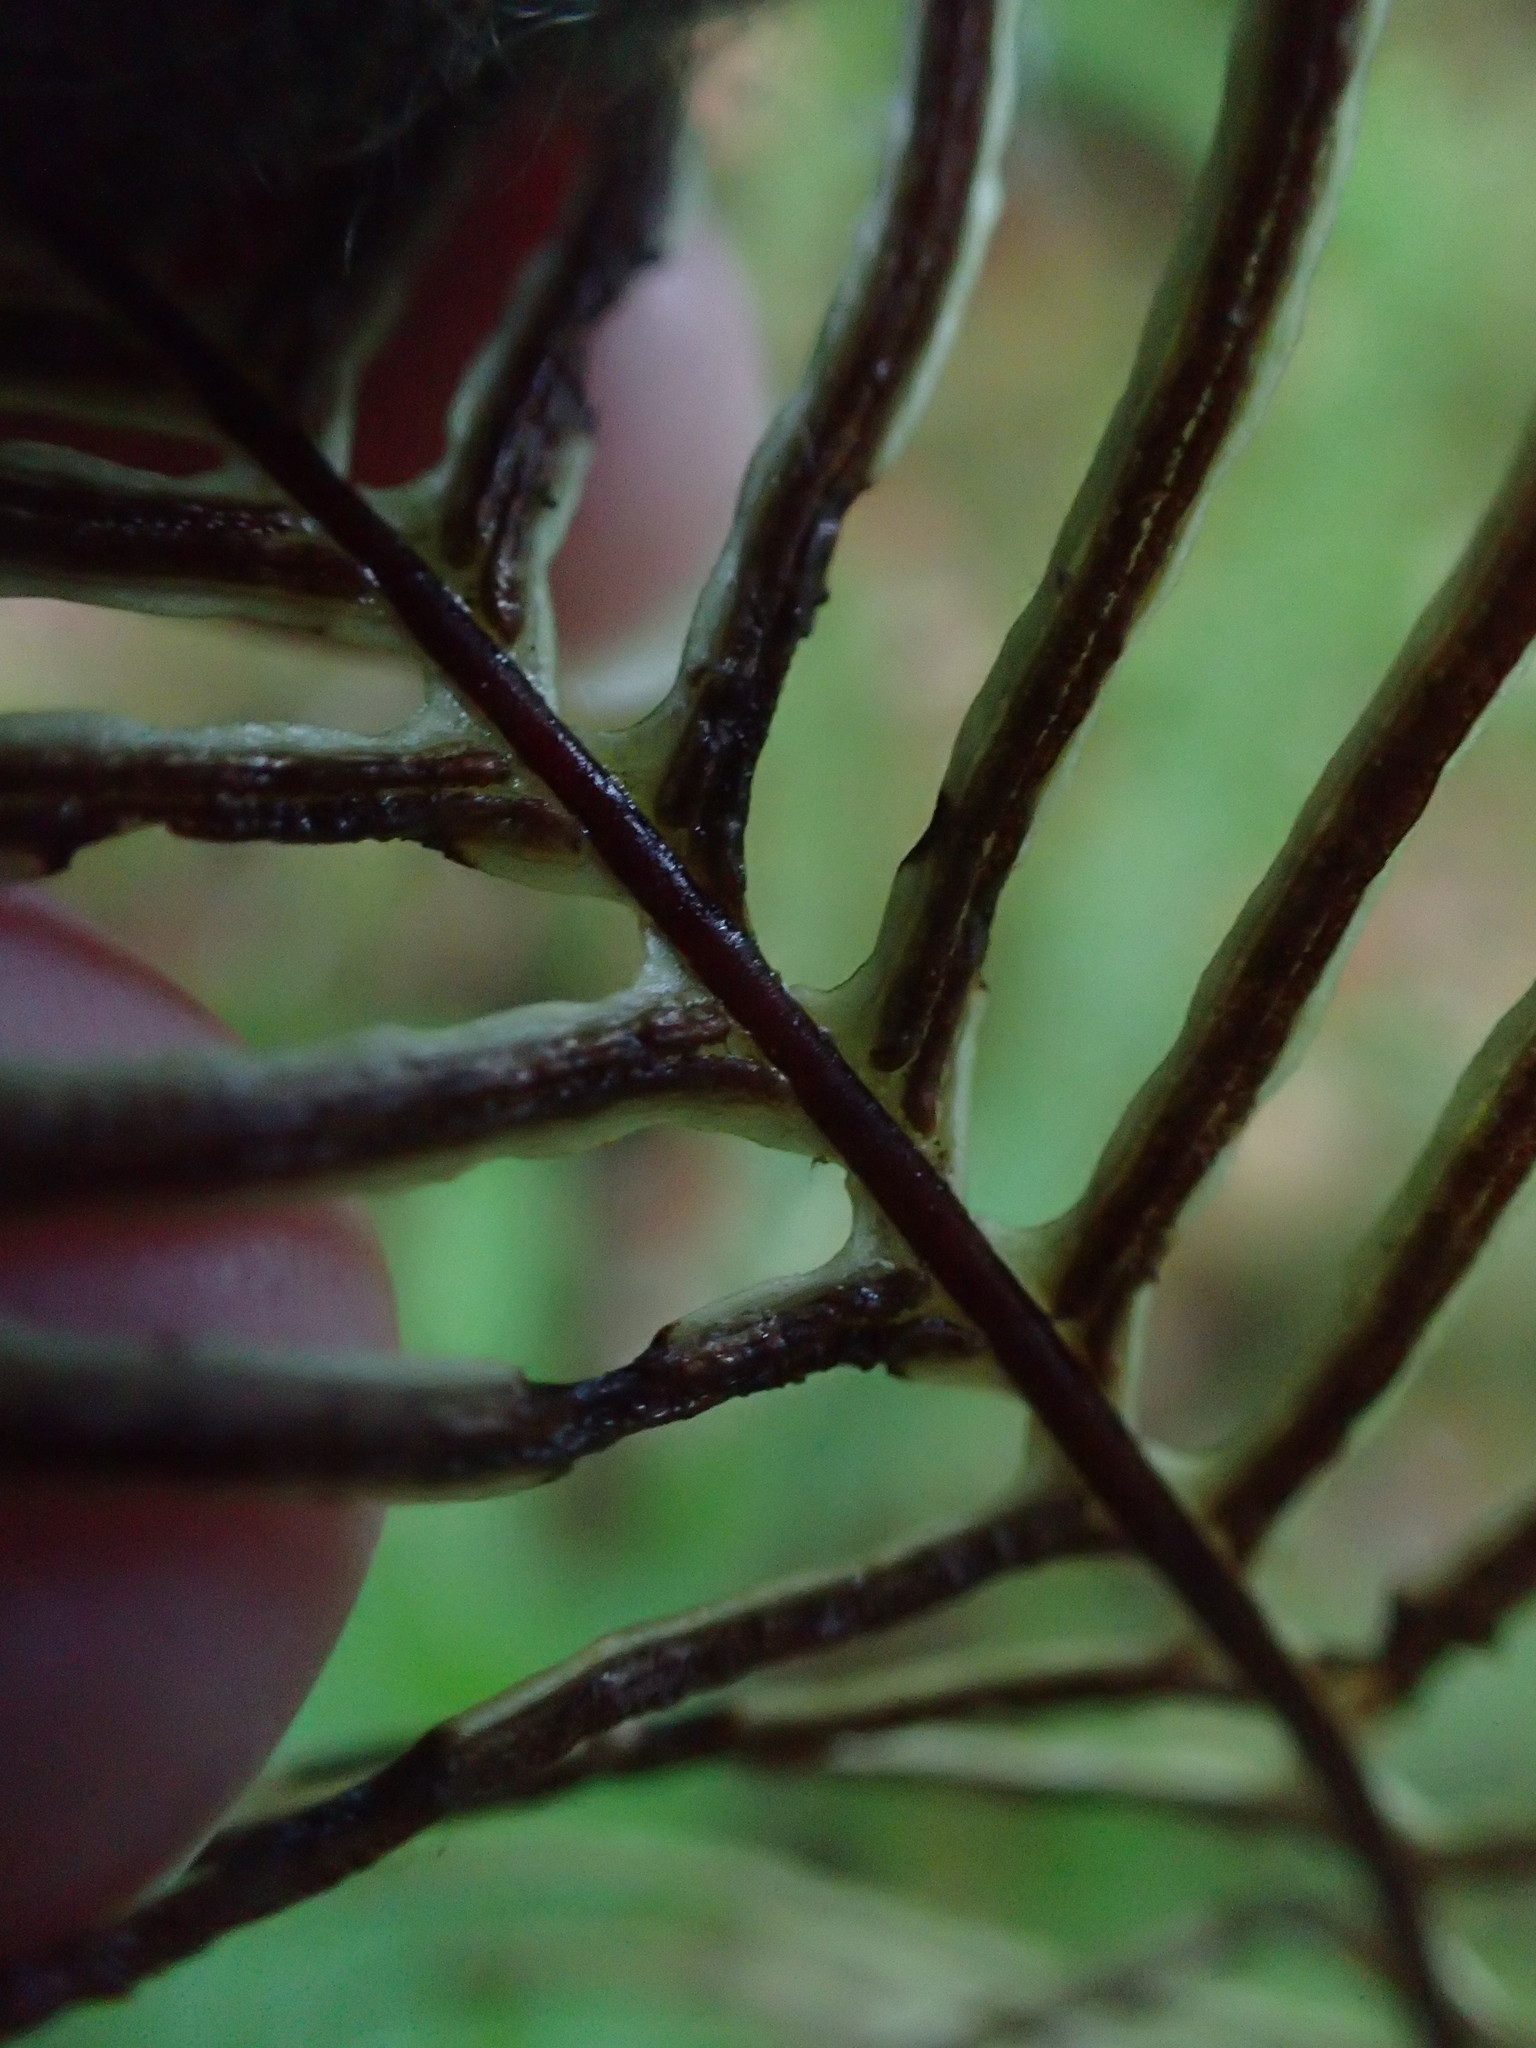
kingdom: Plantae
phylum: Tracheophyta
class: Polypodiopsida
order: Polypodiales
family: Blechnaceae
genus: Struthiopteris
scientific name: Struthiopteris spicant
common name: Deer fern
